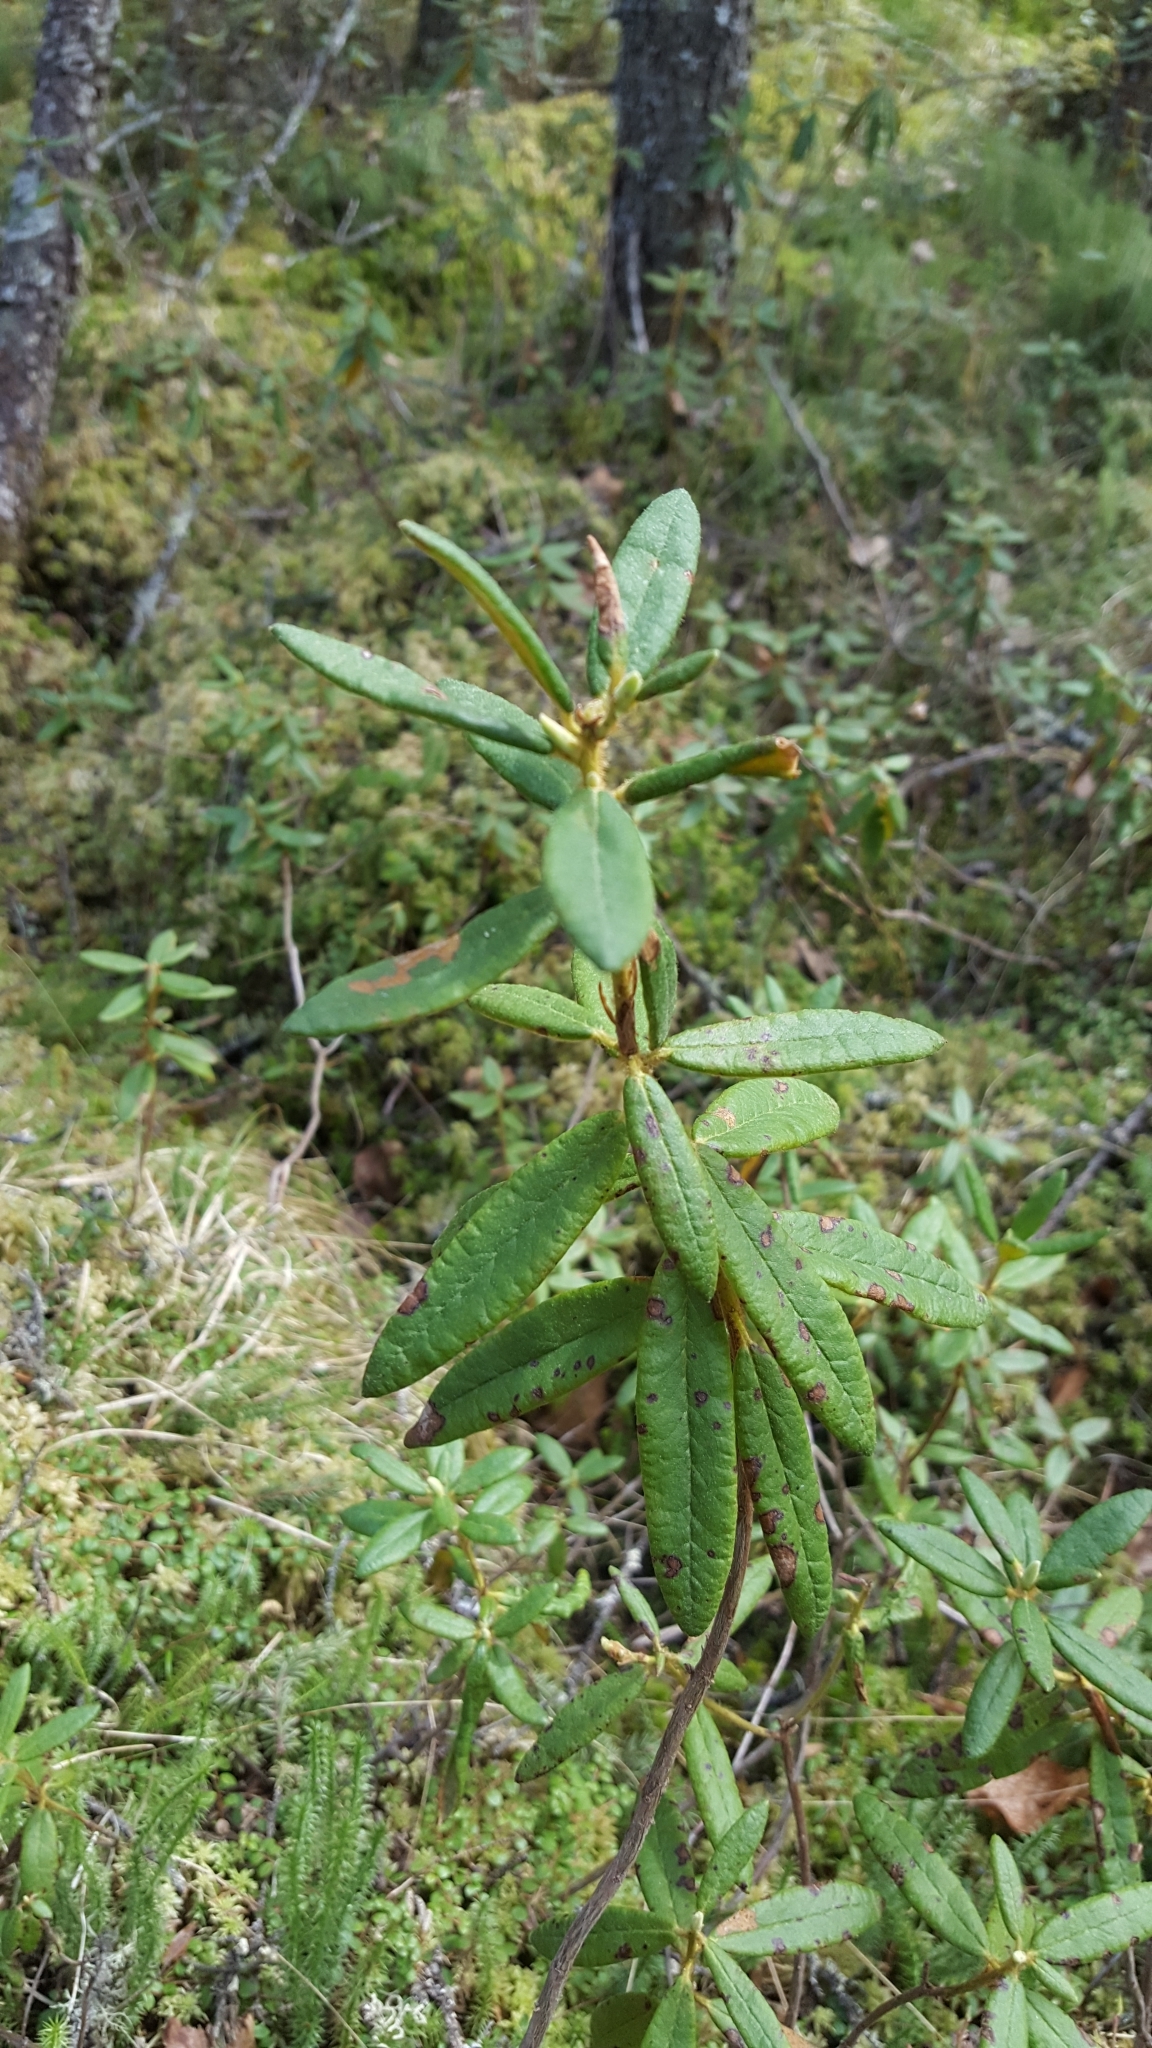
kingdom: Plantae
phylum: Tracheophyta
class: Magnoliopsida
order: Ericales
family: Ericaceae
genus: Rhododendron
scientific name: Rhododendron groenlandicum
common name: Bog labrador tea
